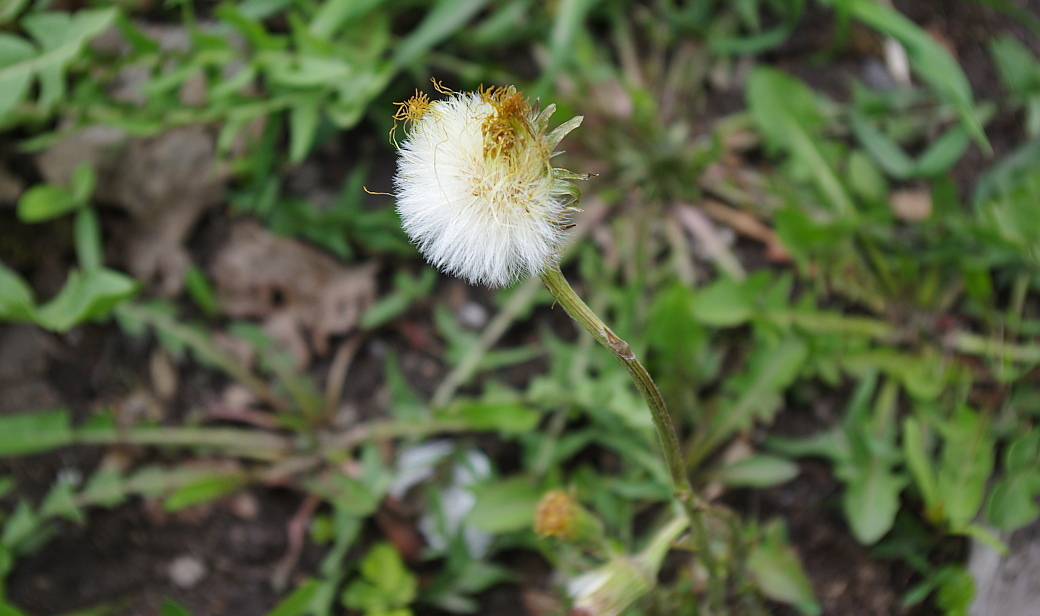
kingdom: Plantae
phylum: Tracheophyta
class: Magnoliopsida
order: Asterales
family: Asteraceae
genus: Tussilago
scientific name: Tussilago farfara
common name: Coltsfoot
